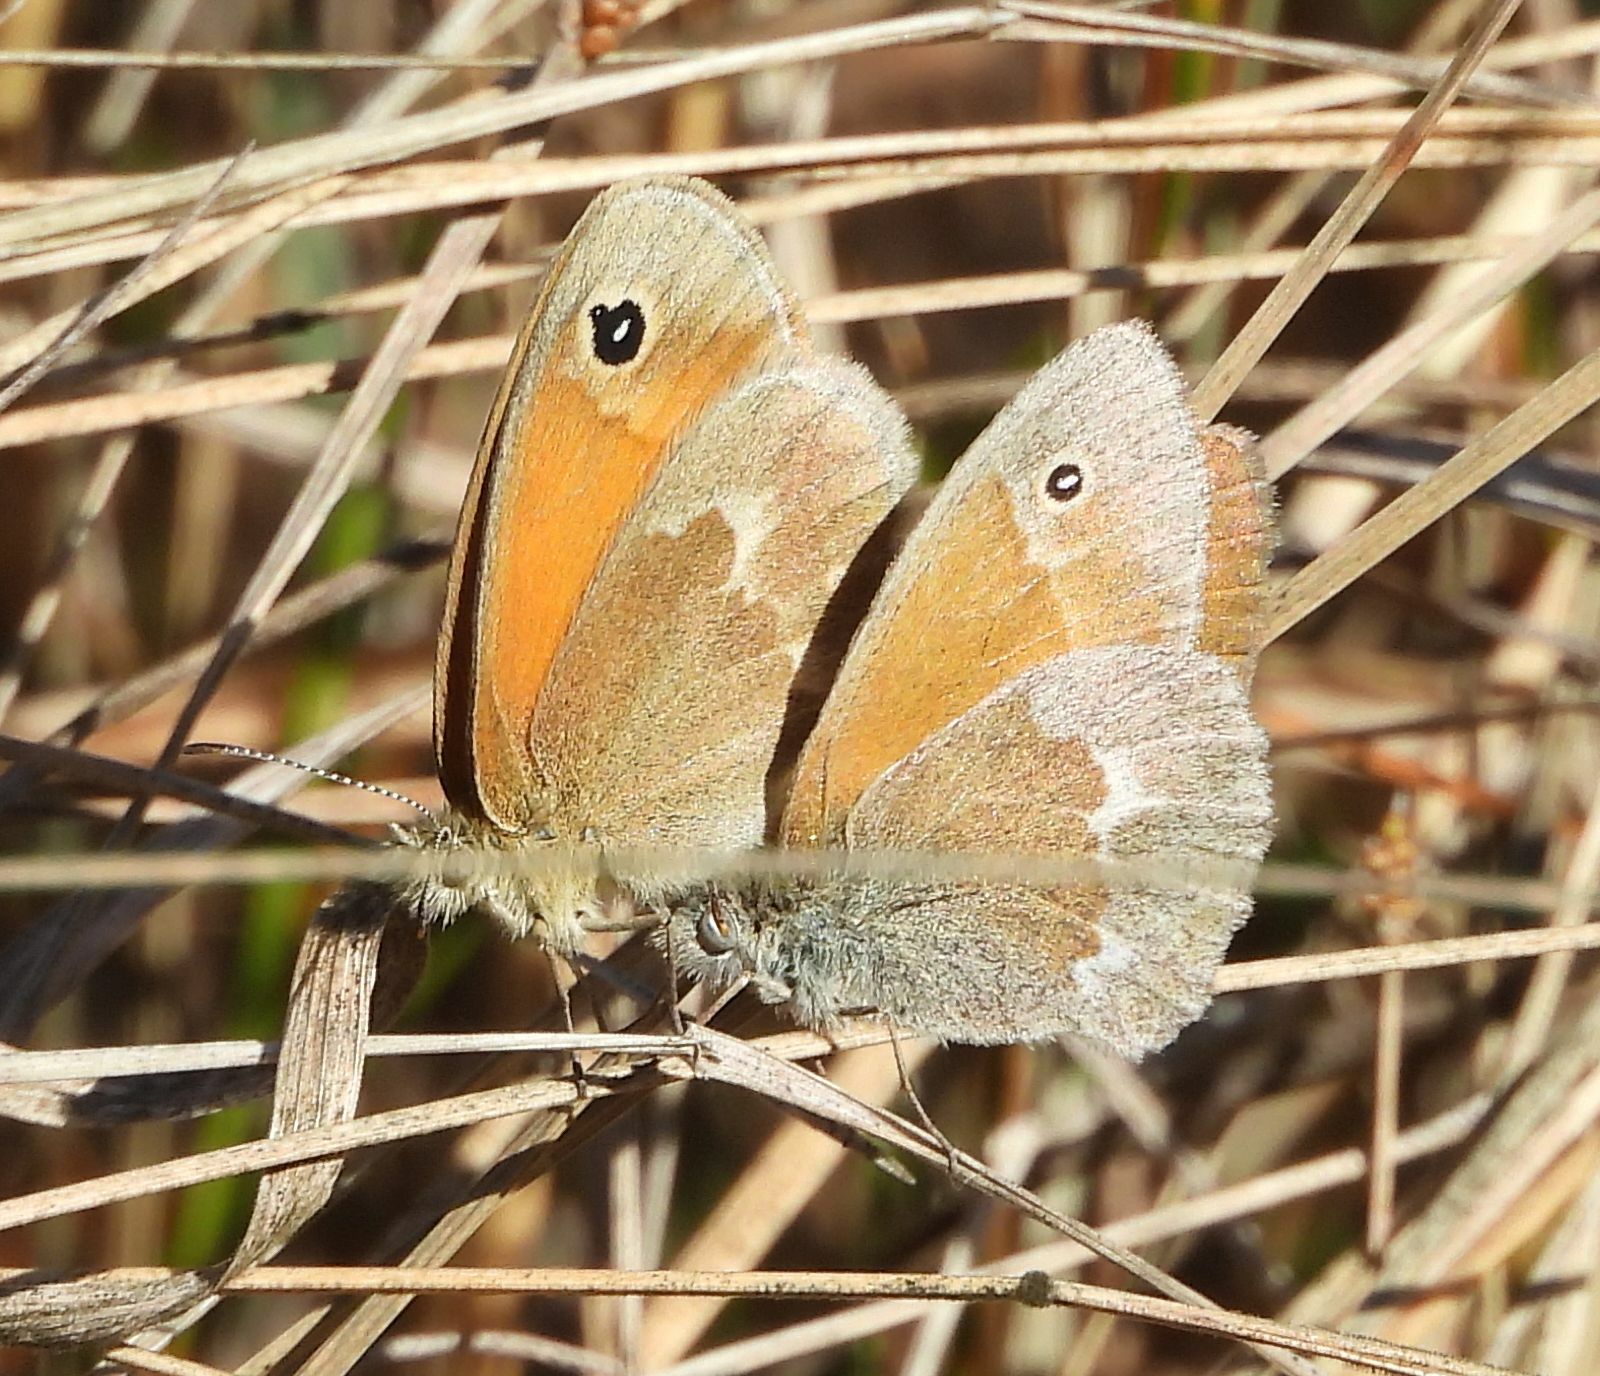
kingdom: Animalia
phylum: Arthropoda
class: Insecta
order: Lepidoptera
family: Nymphalidae
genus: Coenonympha
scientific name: Coenonympha california
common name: Common ringlet
